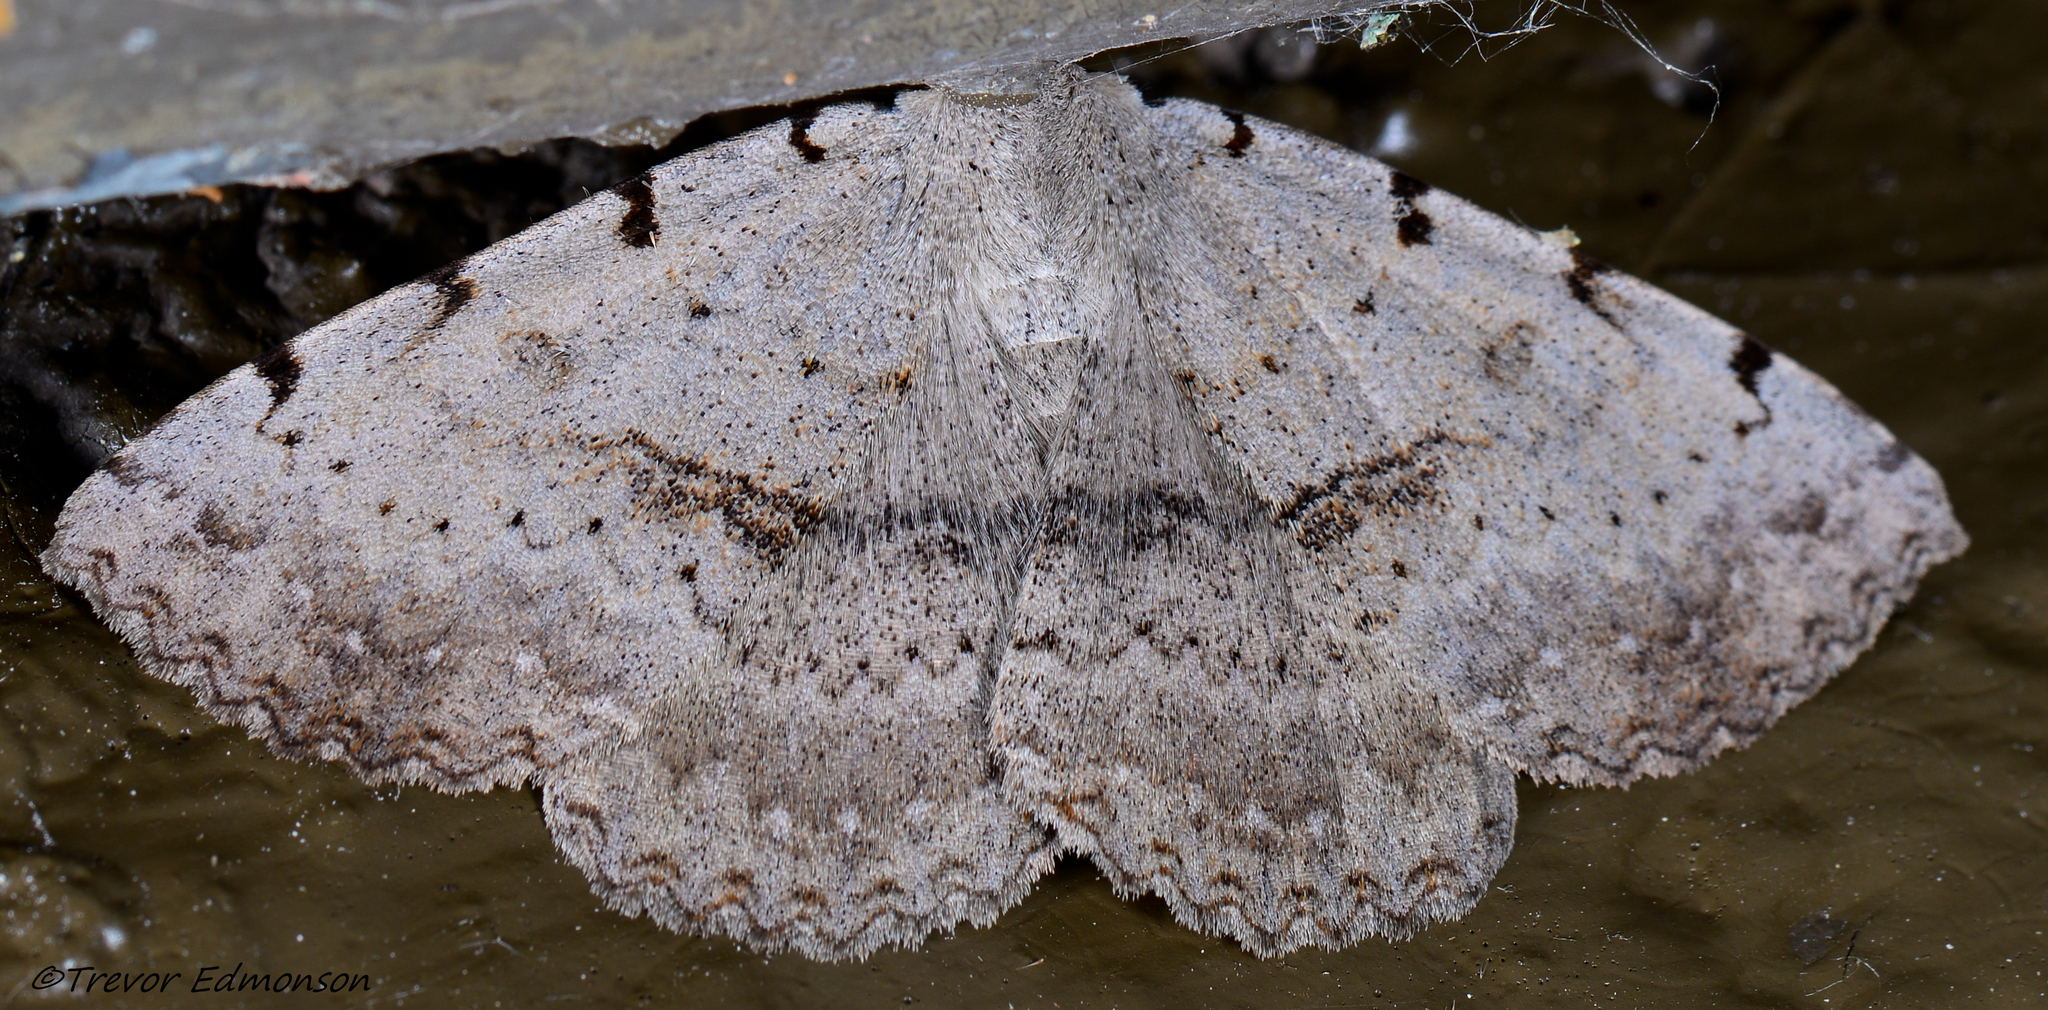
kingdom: Animalia
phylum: Arthropoda
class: Insecta
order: Lepidoptera
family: Erebidae
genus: Spiloloma
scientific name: Spiloloma lunilinea
